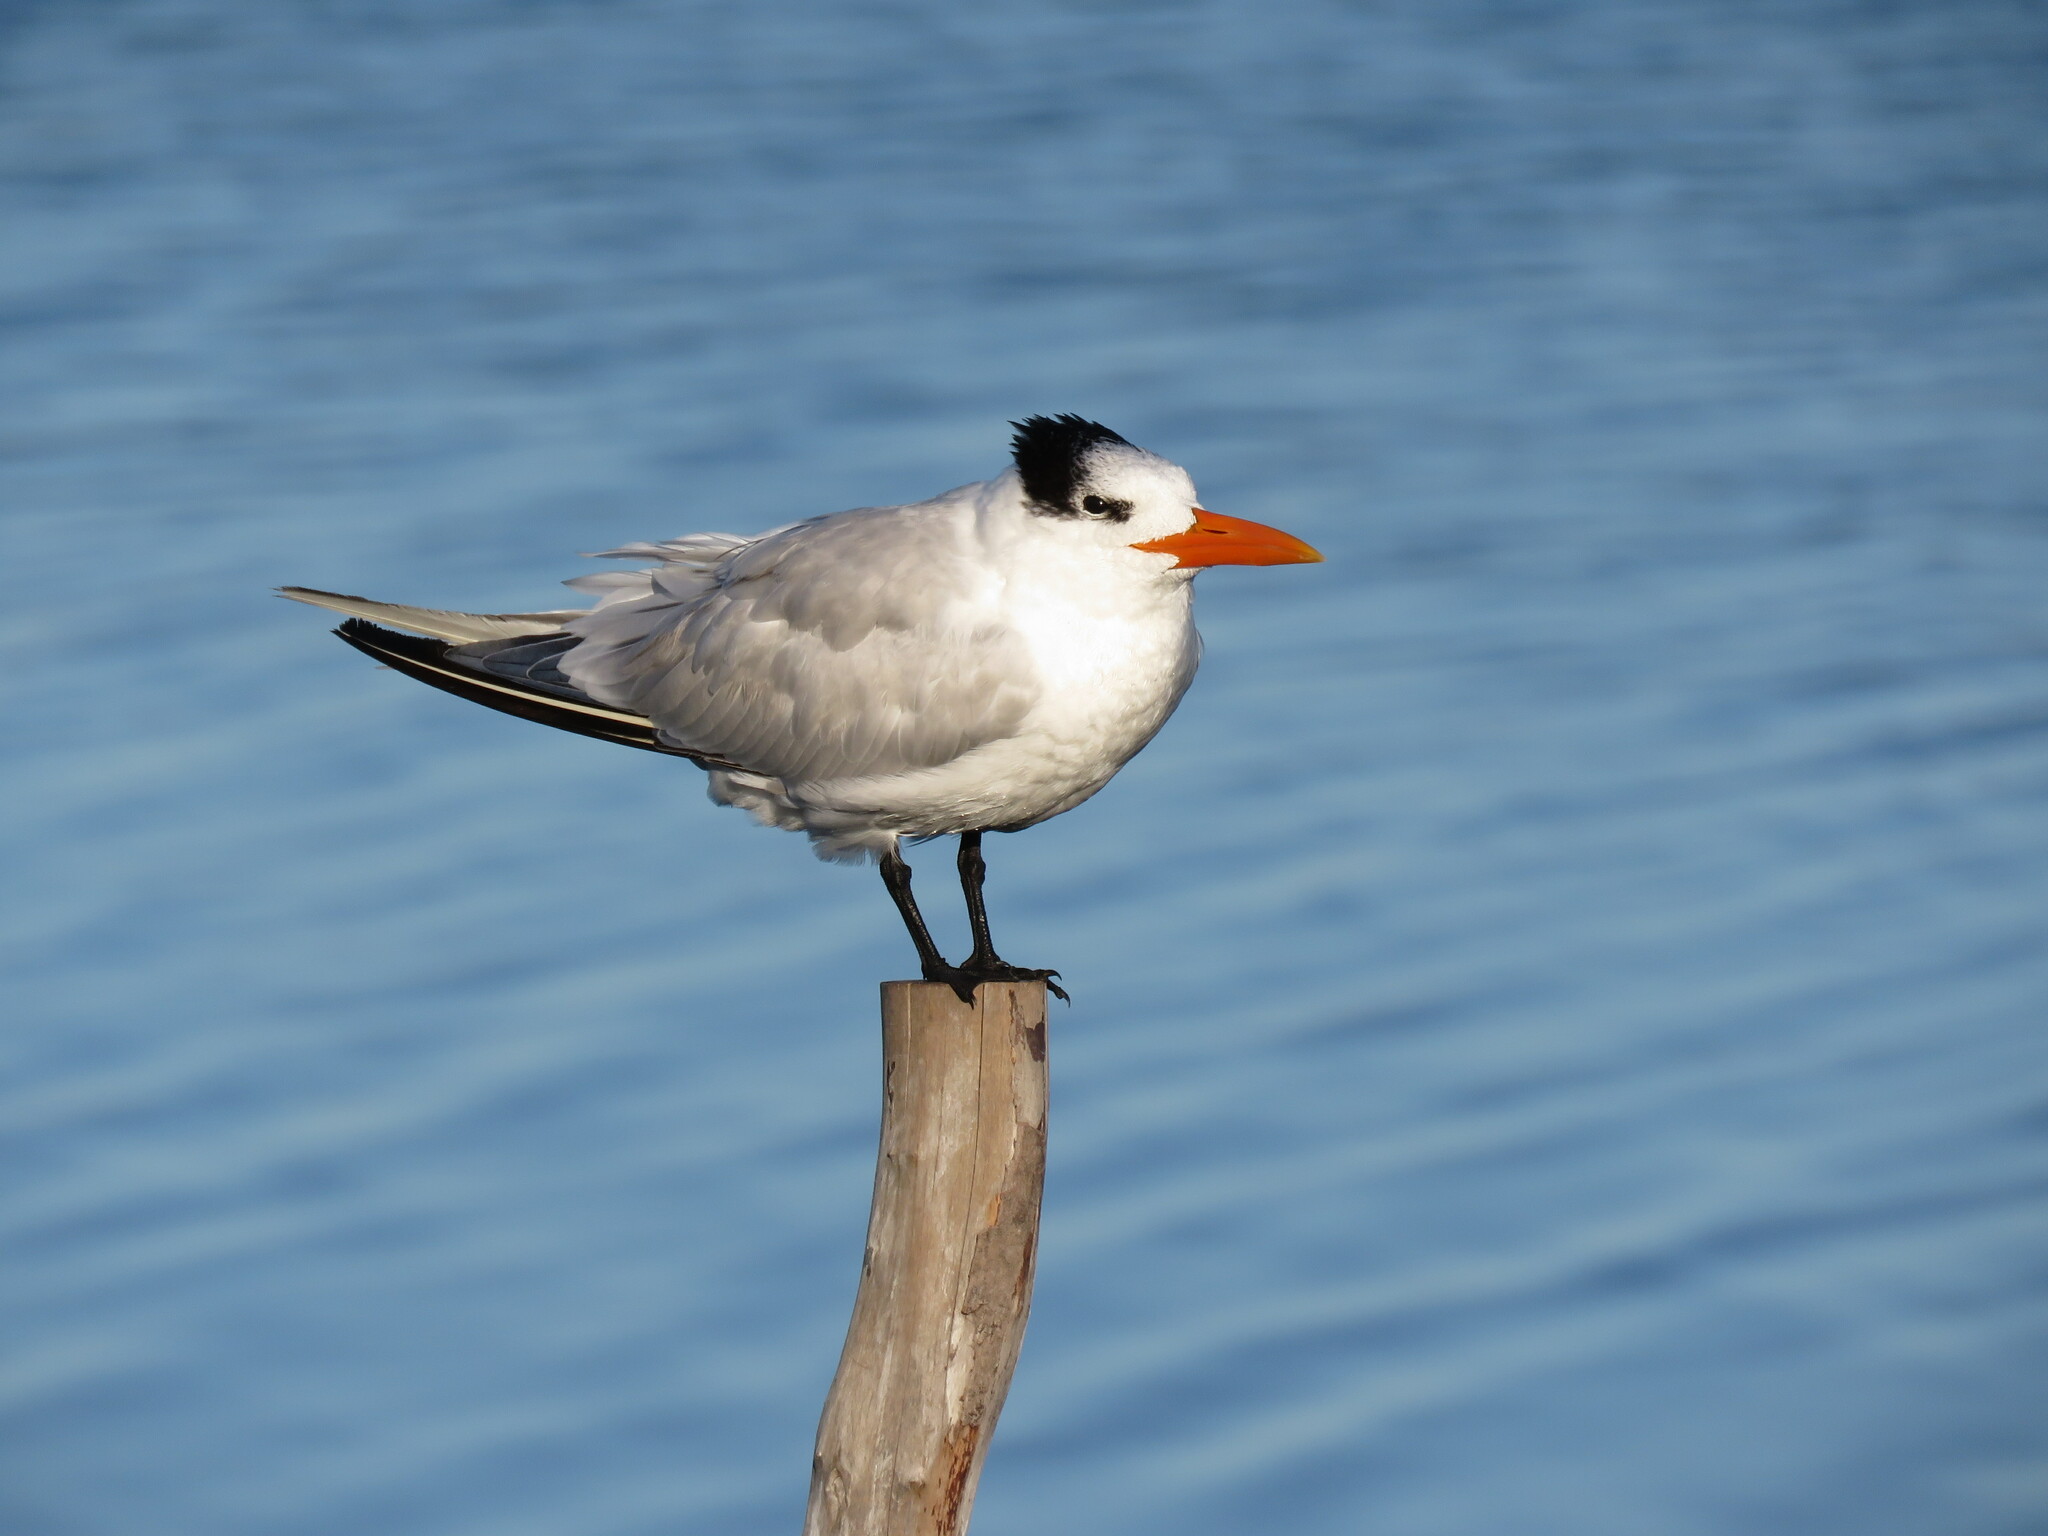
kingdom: Animalia
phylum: Chordata
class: Aves
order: Charadriiformes
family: Laridae
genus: Thalasseus
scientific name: Thalasseus maximus
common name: Royal tern
